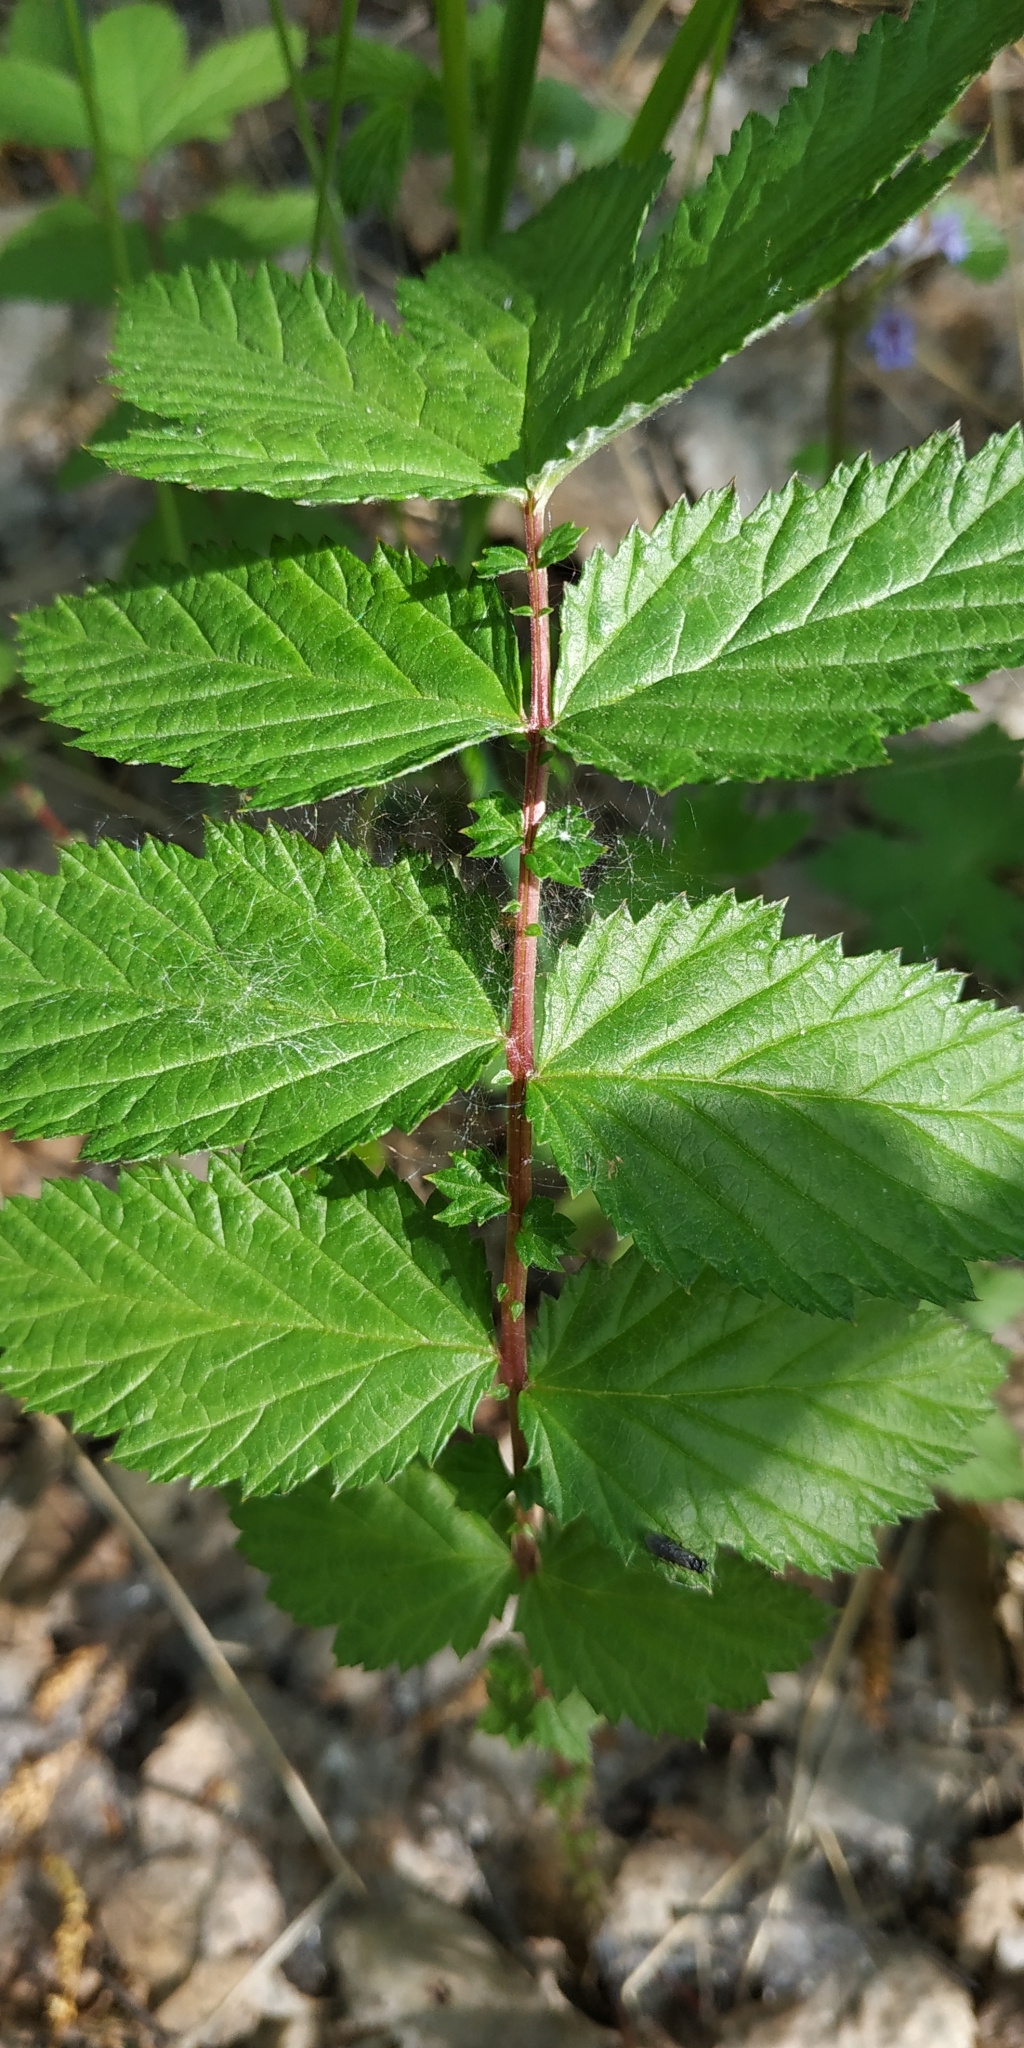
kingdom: Plantae
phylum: Tracheophyta
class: Magnoliopsida
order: Rosales
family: Rosaceae
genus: Filipendula
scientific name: Filipendula ulmaria
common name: Meadowsweet
